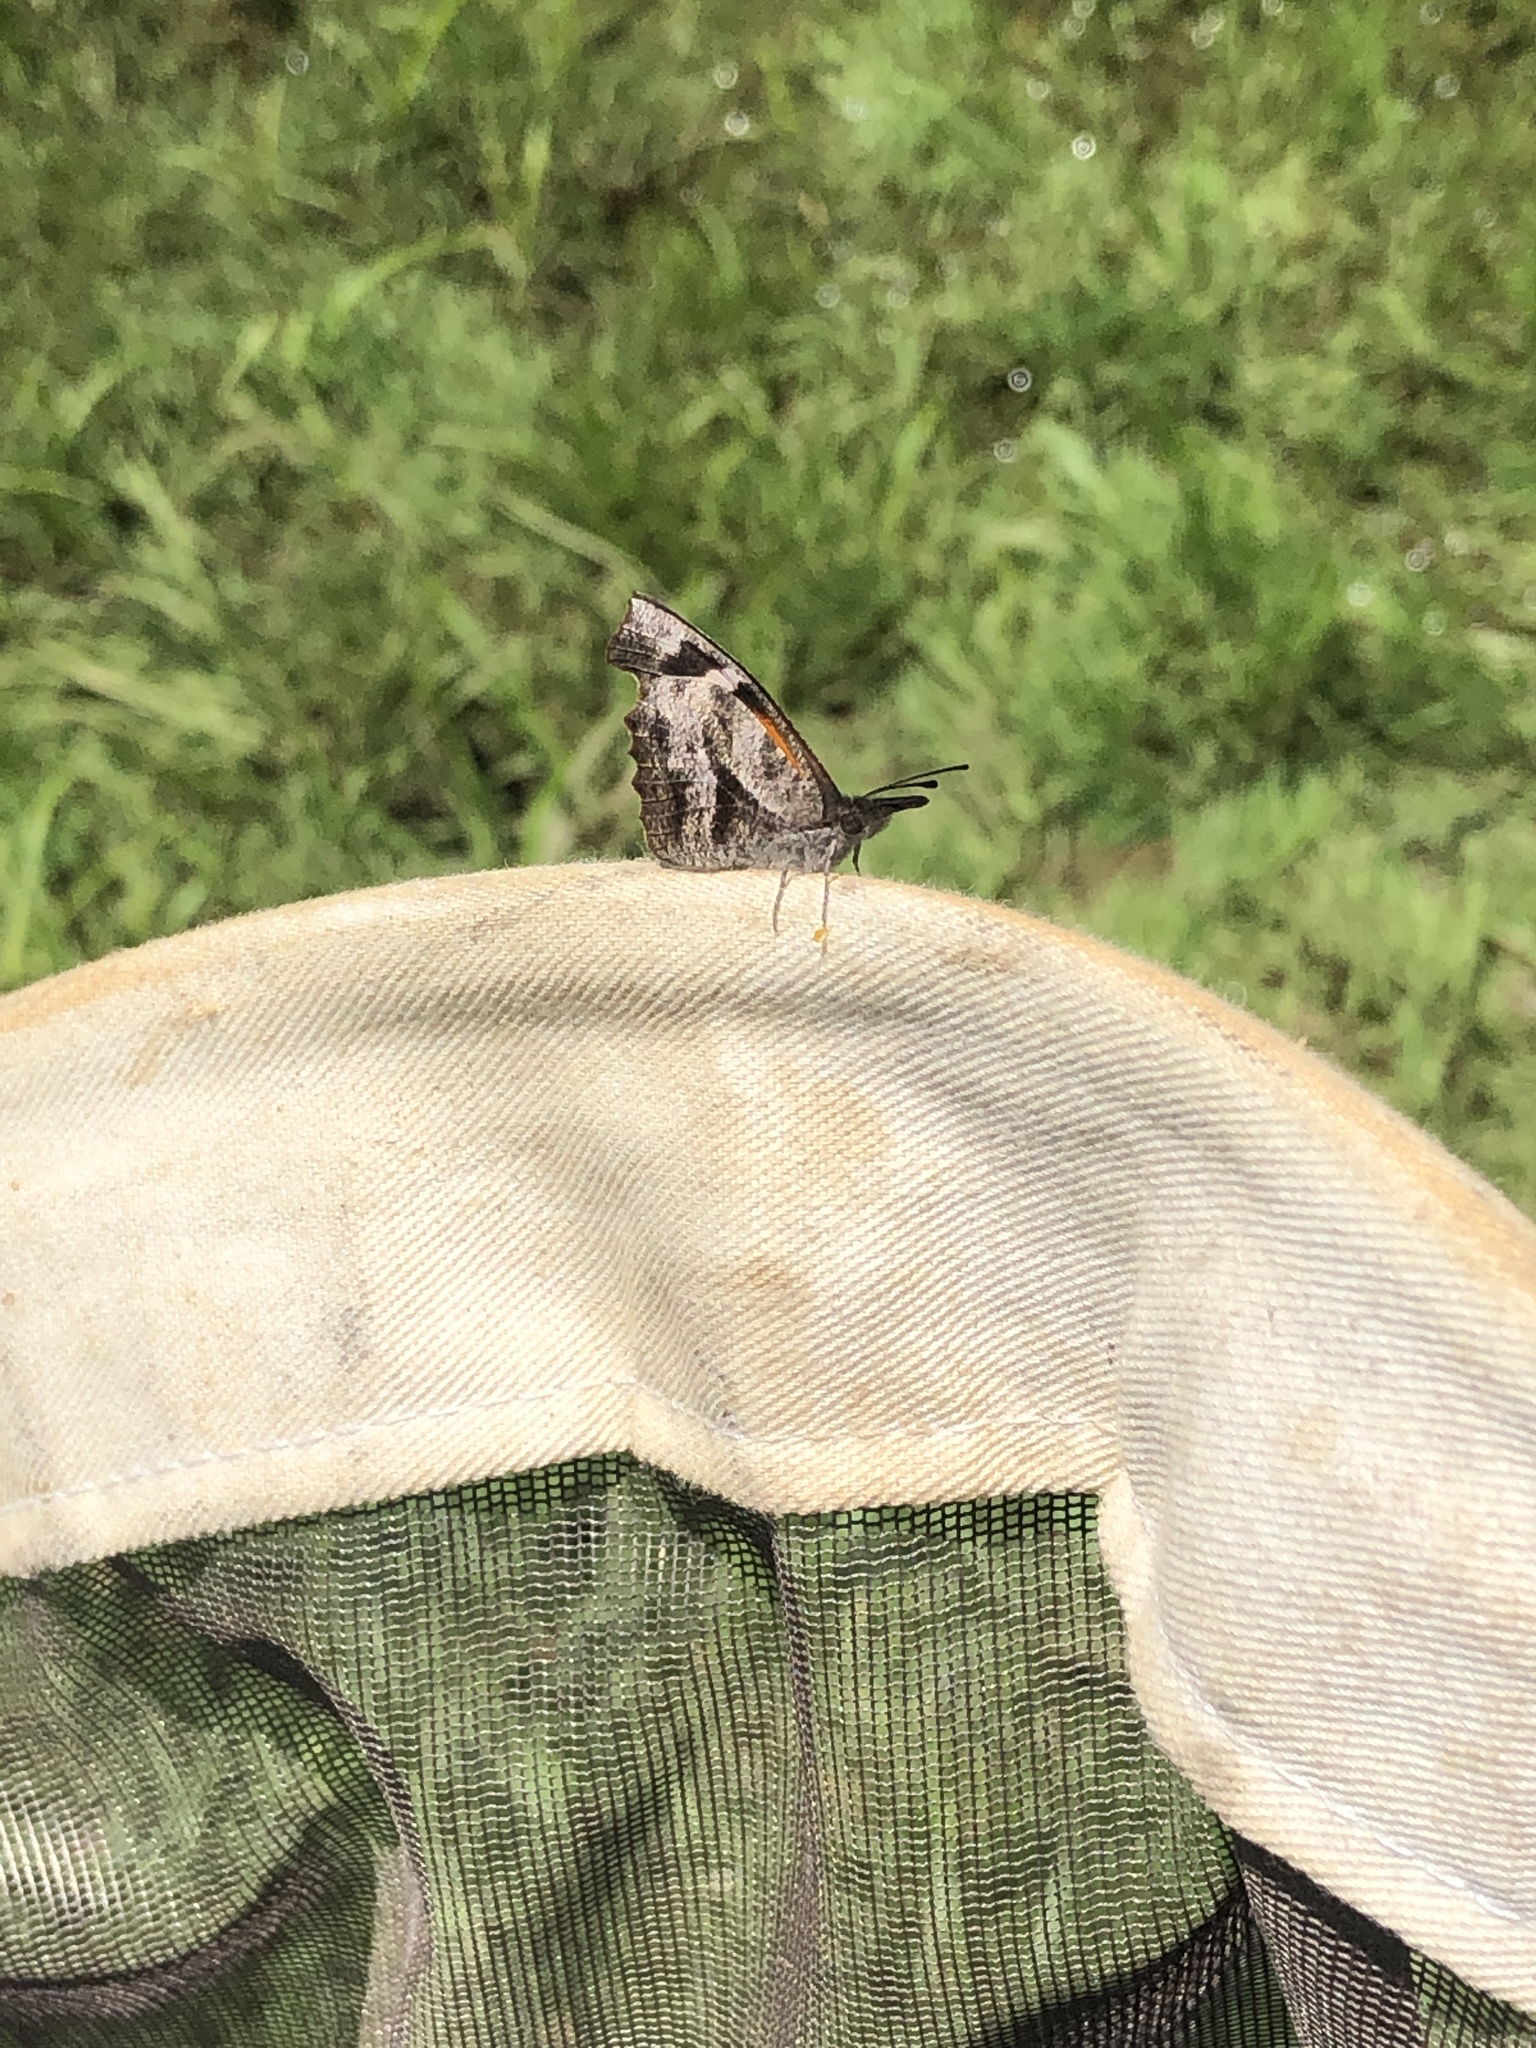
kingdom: Animalia
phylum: Arthropoda
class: Insecta
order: Lepidoptera
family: Nymphalidae
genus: Libytheana
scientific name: Libytheana carinenta
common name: American snout
